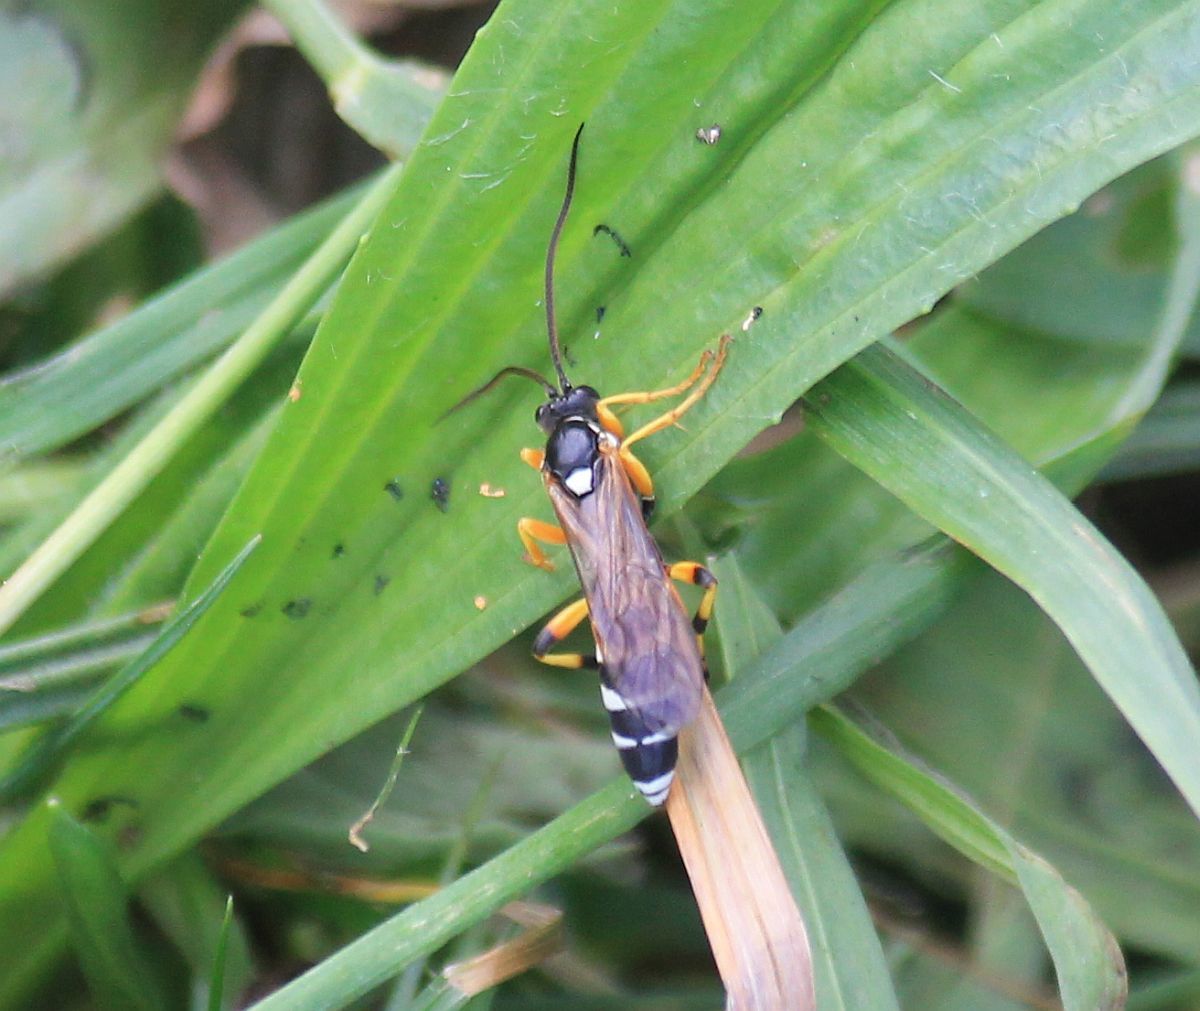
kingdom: Animalia
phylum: Arthropoda
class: Insecta
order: Hymenoptera
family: Ichneumonidae
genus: Ichneumon
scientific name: Ichneumon sarcitorius
